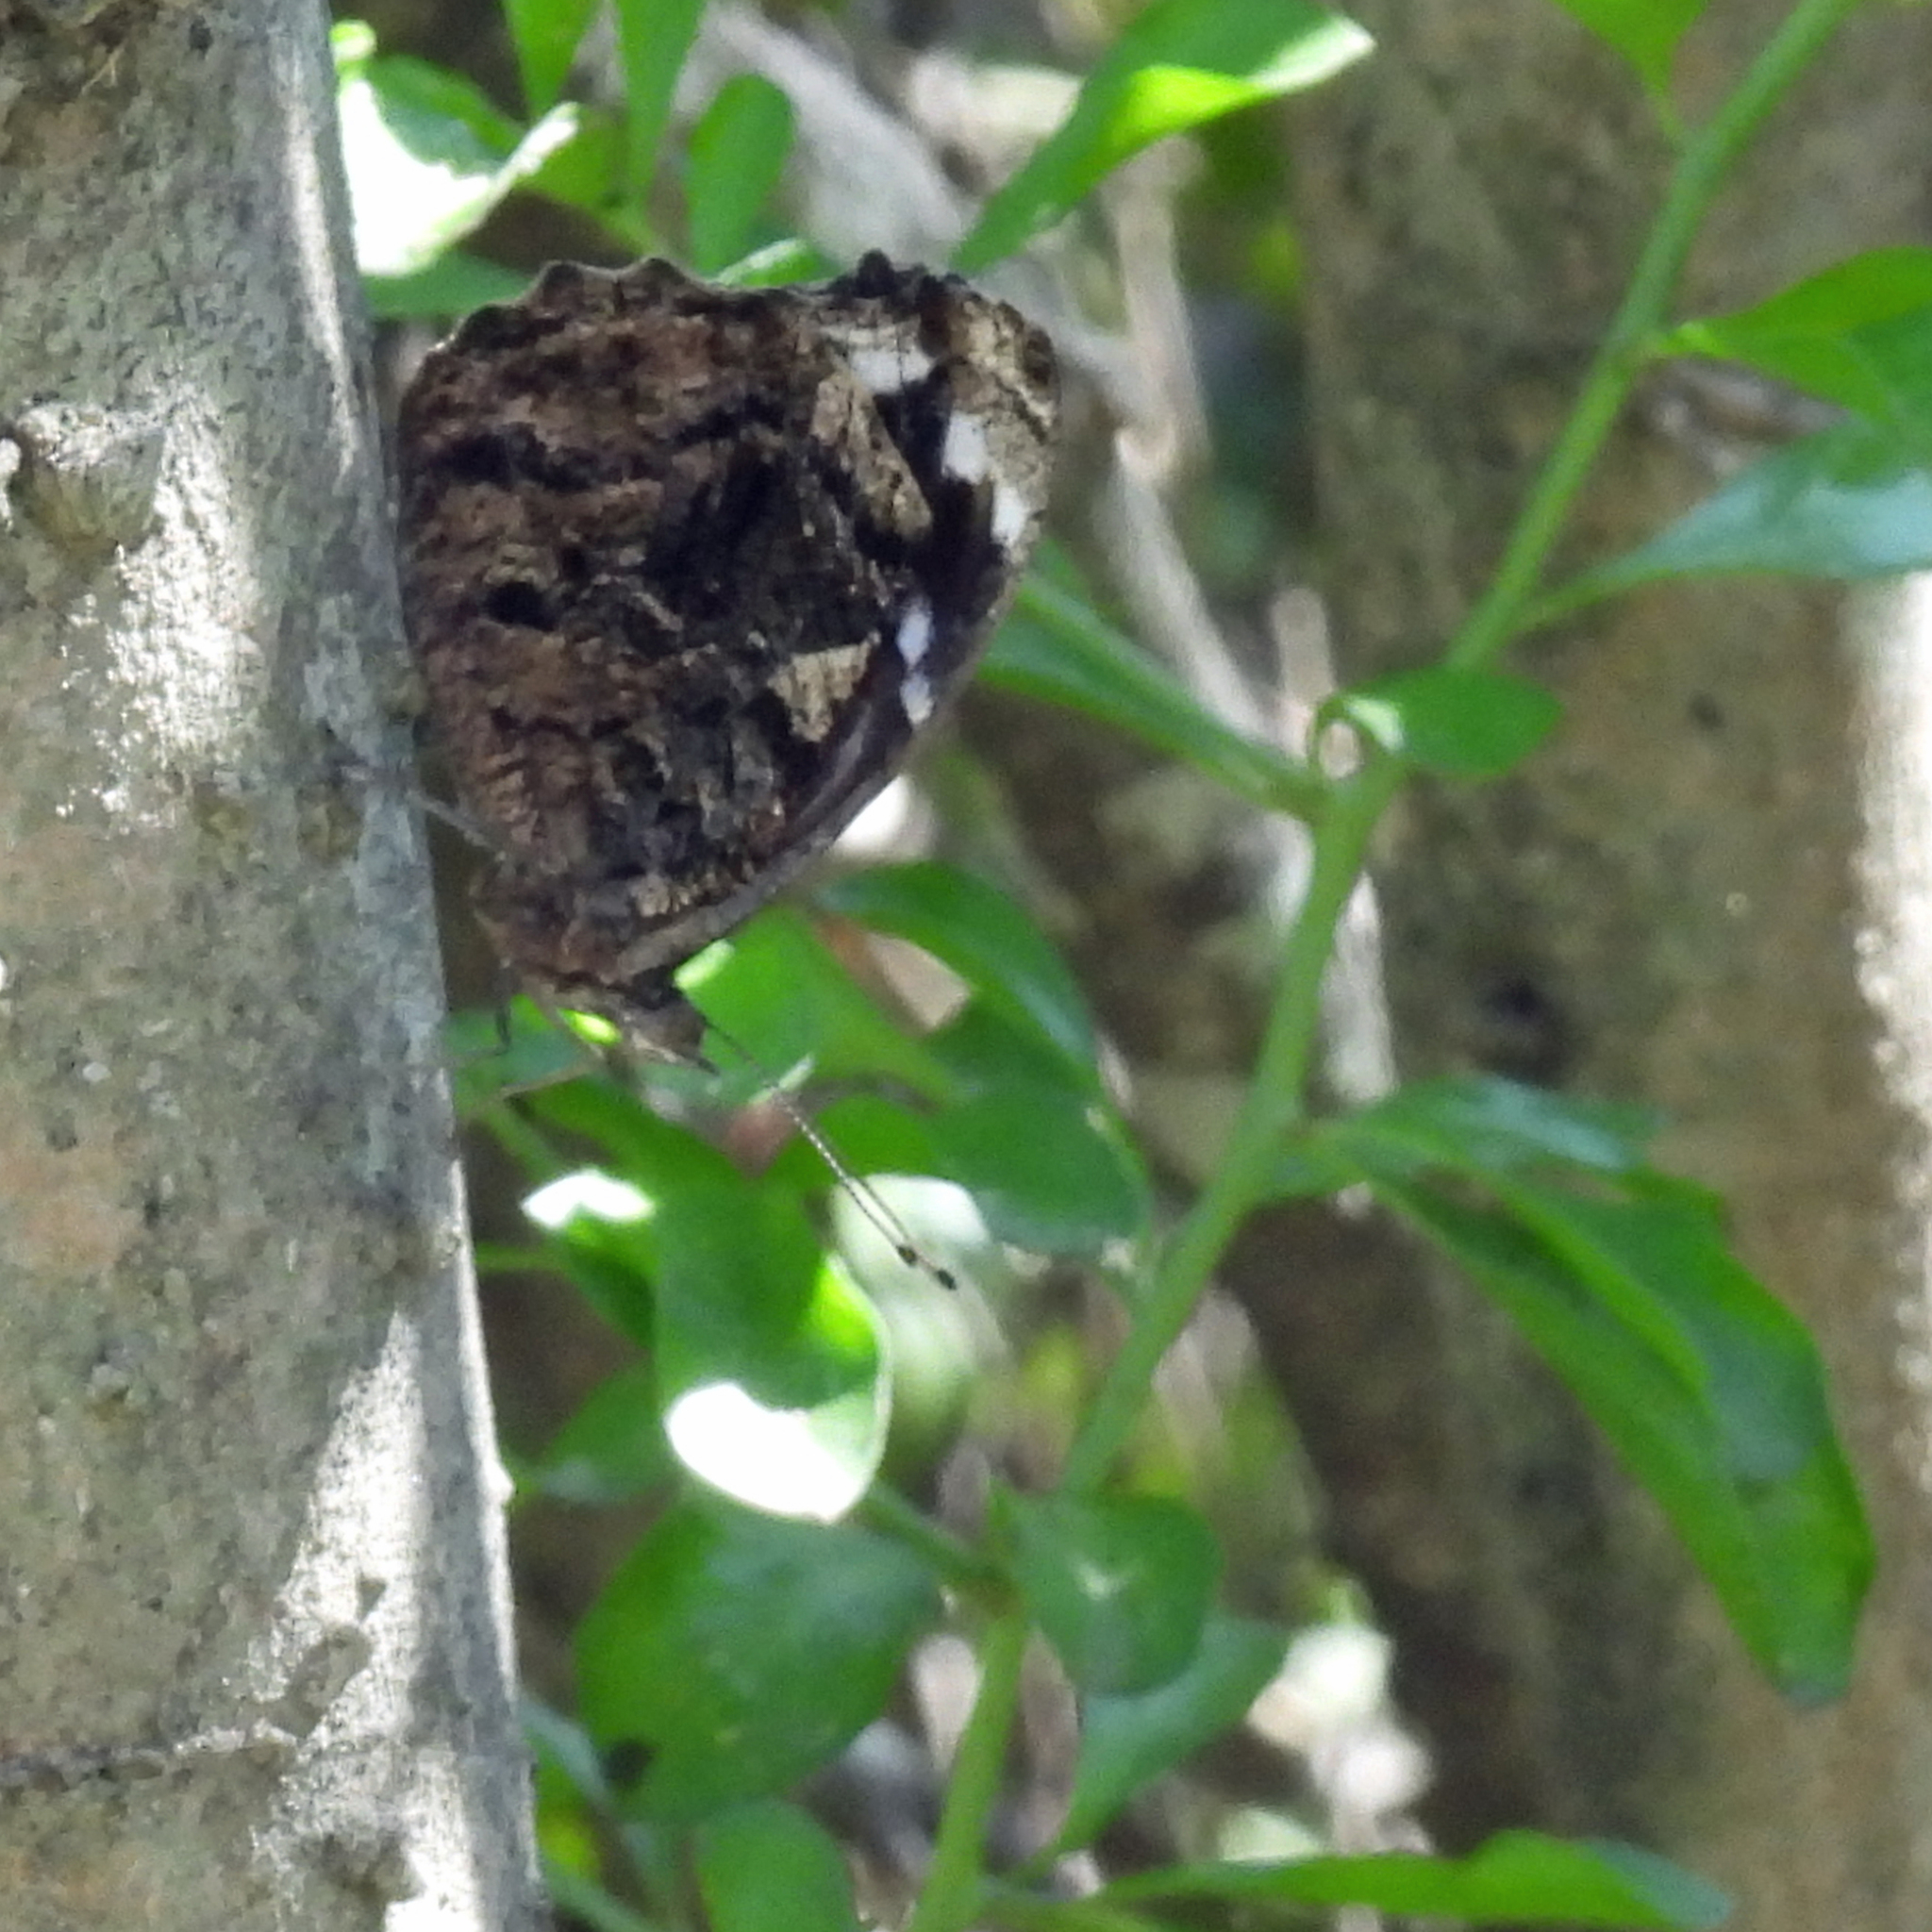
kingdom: Animalia
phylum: Arthropoda
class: Insecta
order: Lepidoptera
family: Nymphalidae
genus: Myscelia
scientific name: Myscelia ethusa
